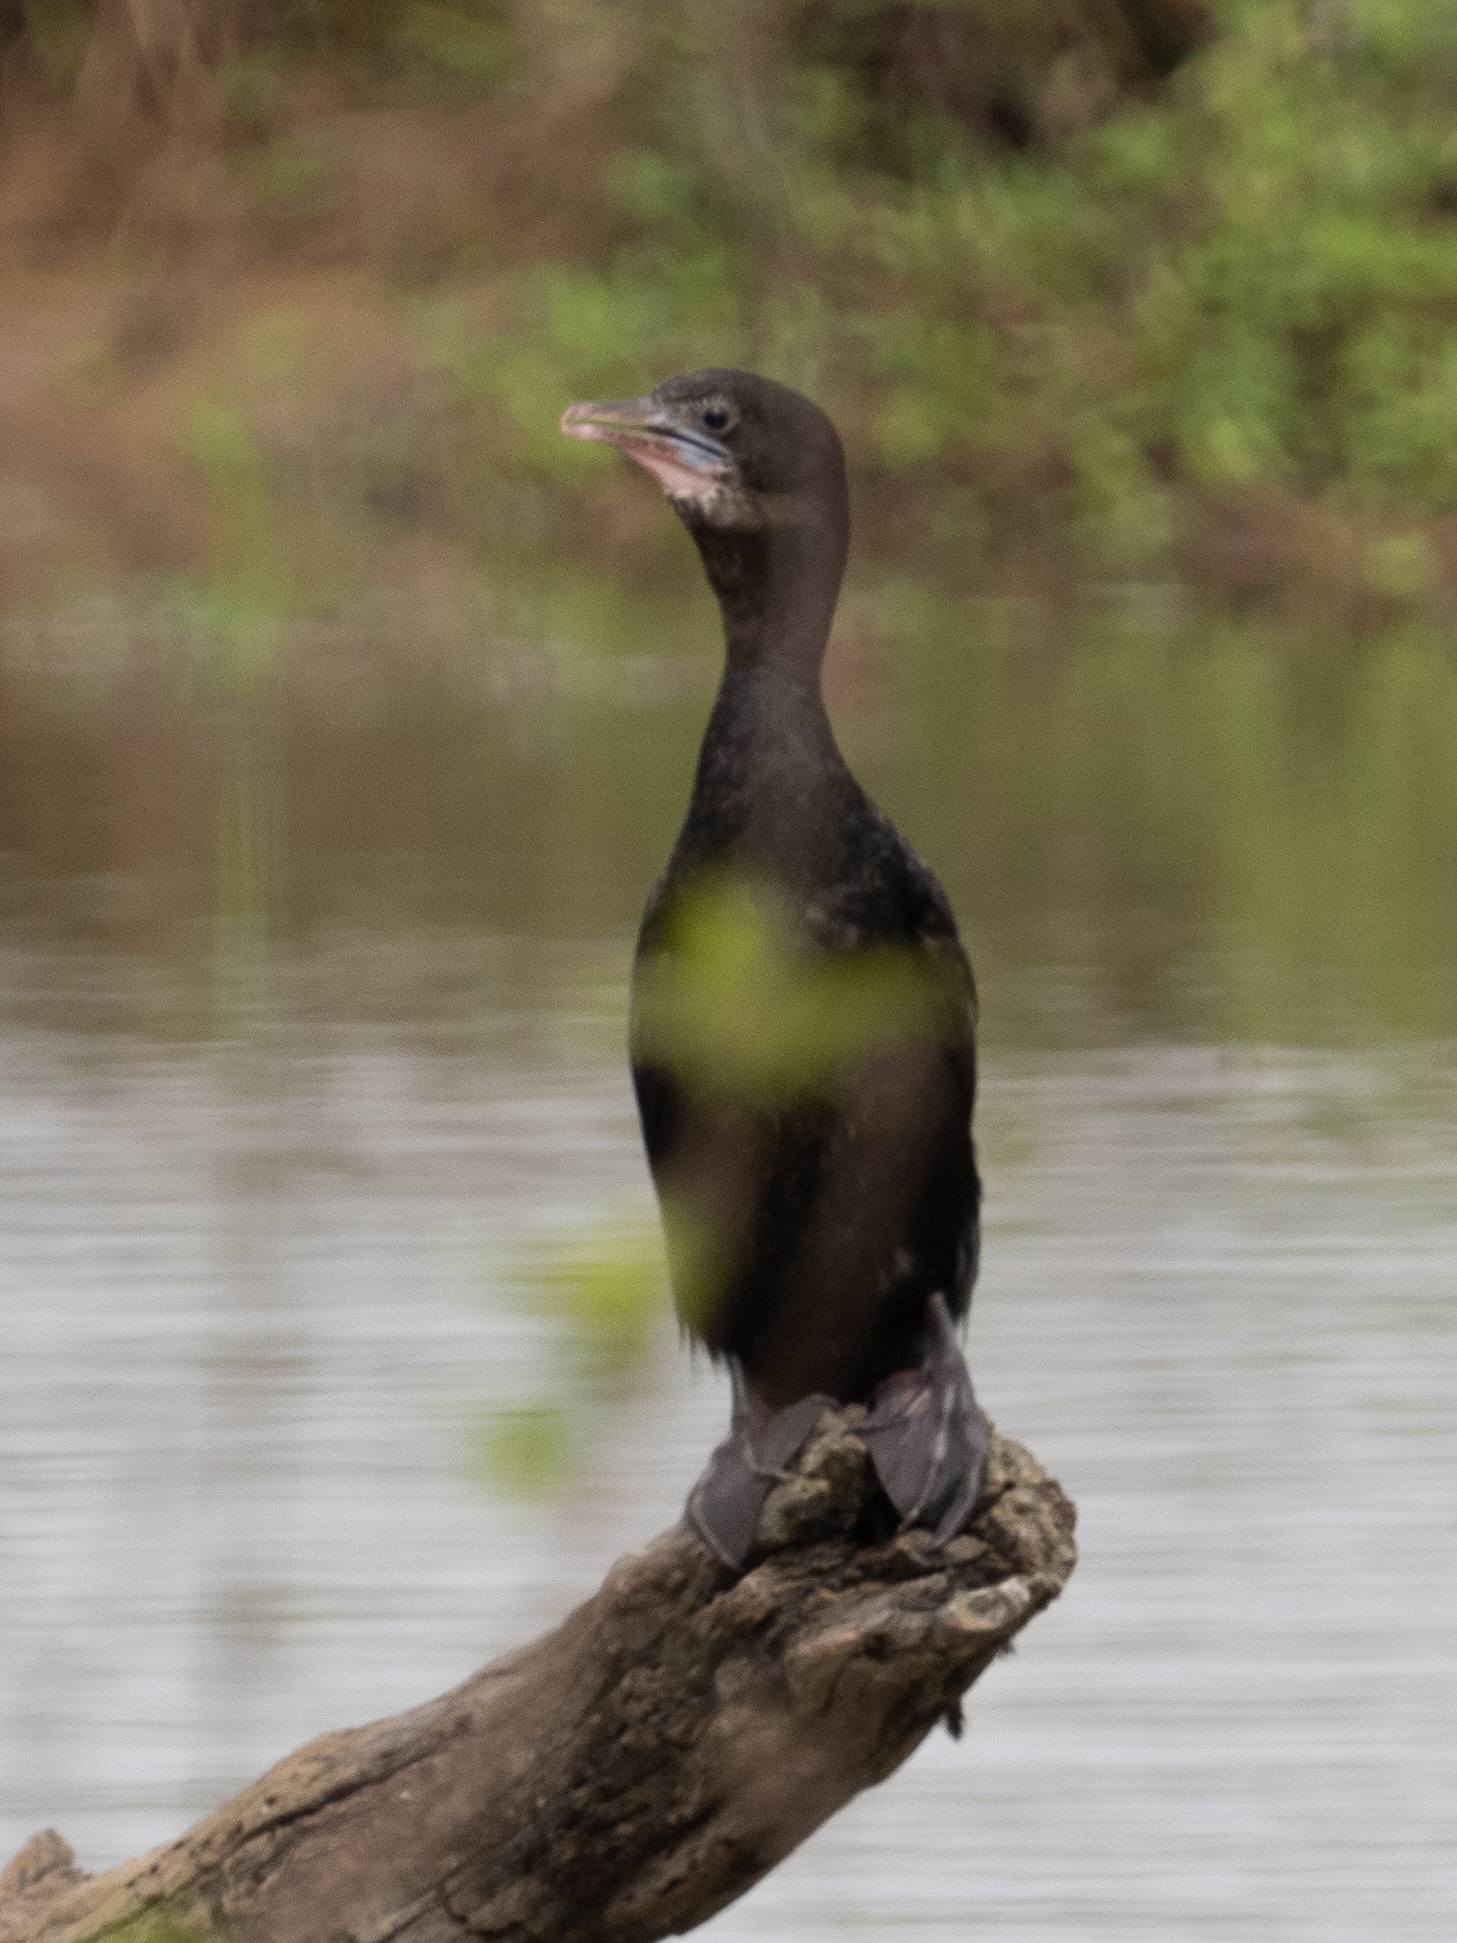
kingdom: Animalia
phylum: Chordata
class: Aves
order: Suliformes
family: Phalacrocoracidae
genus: Microcarbo
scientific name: Microcarbo niger
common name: Little cormorant
